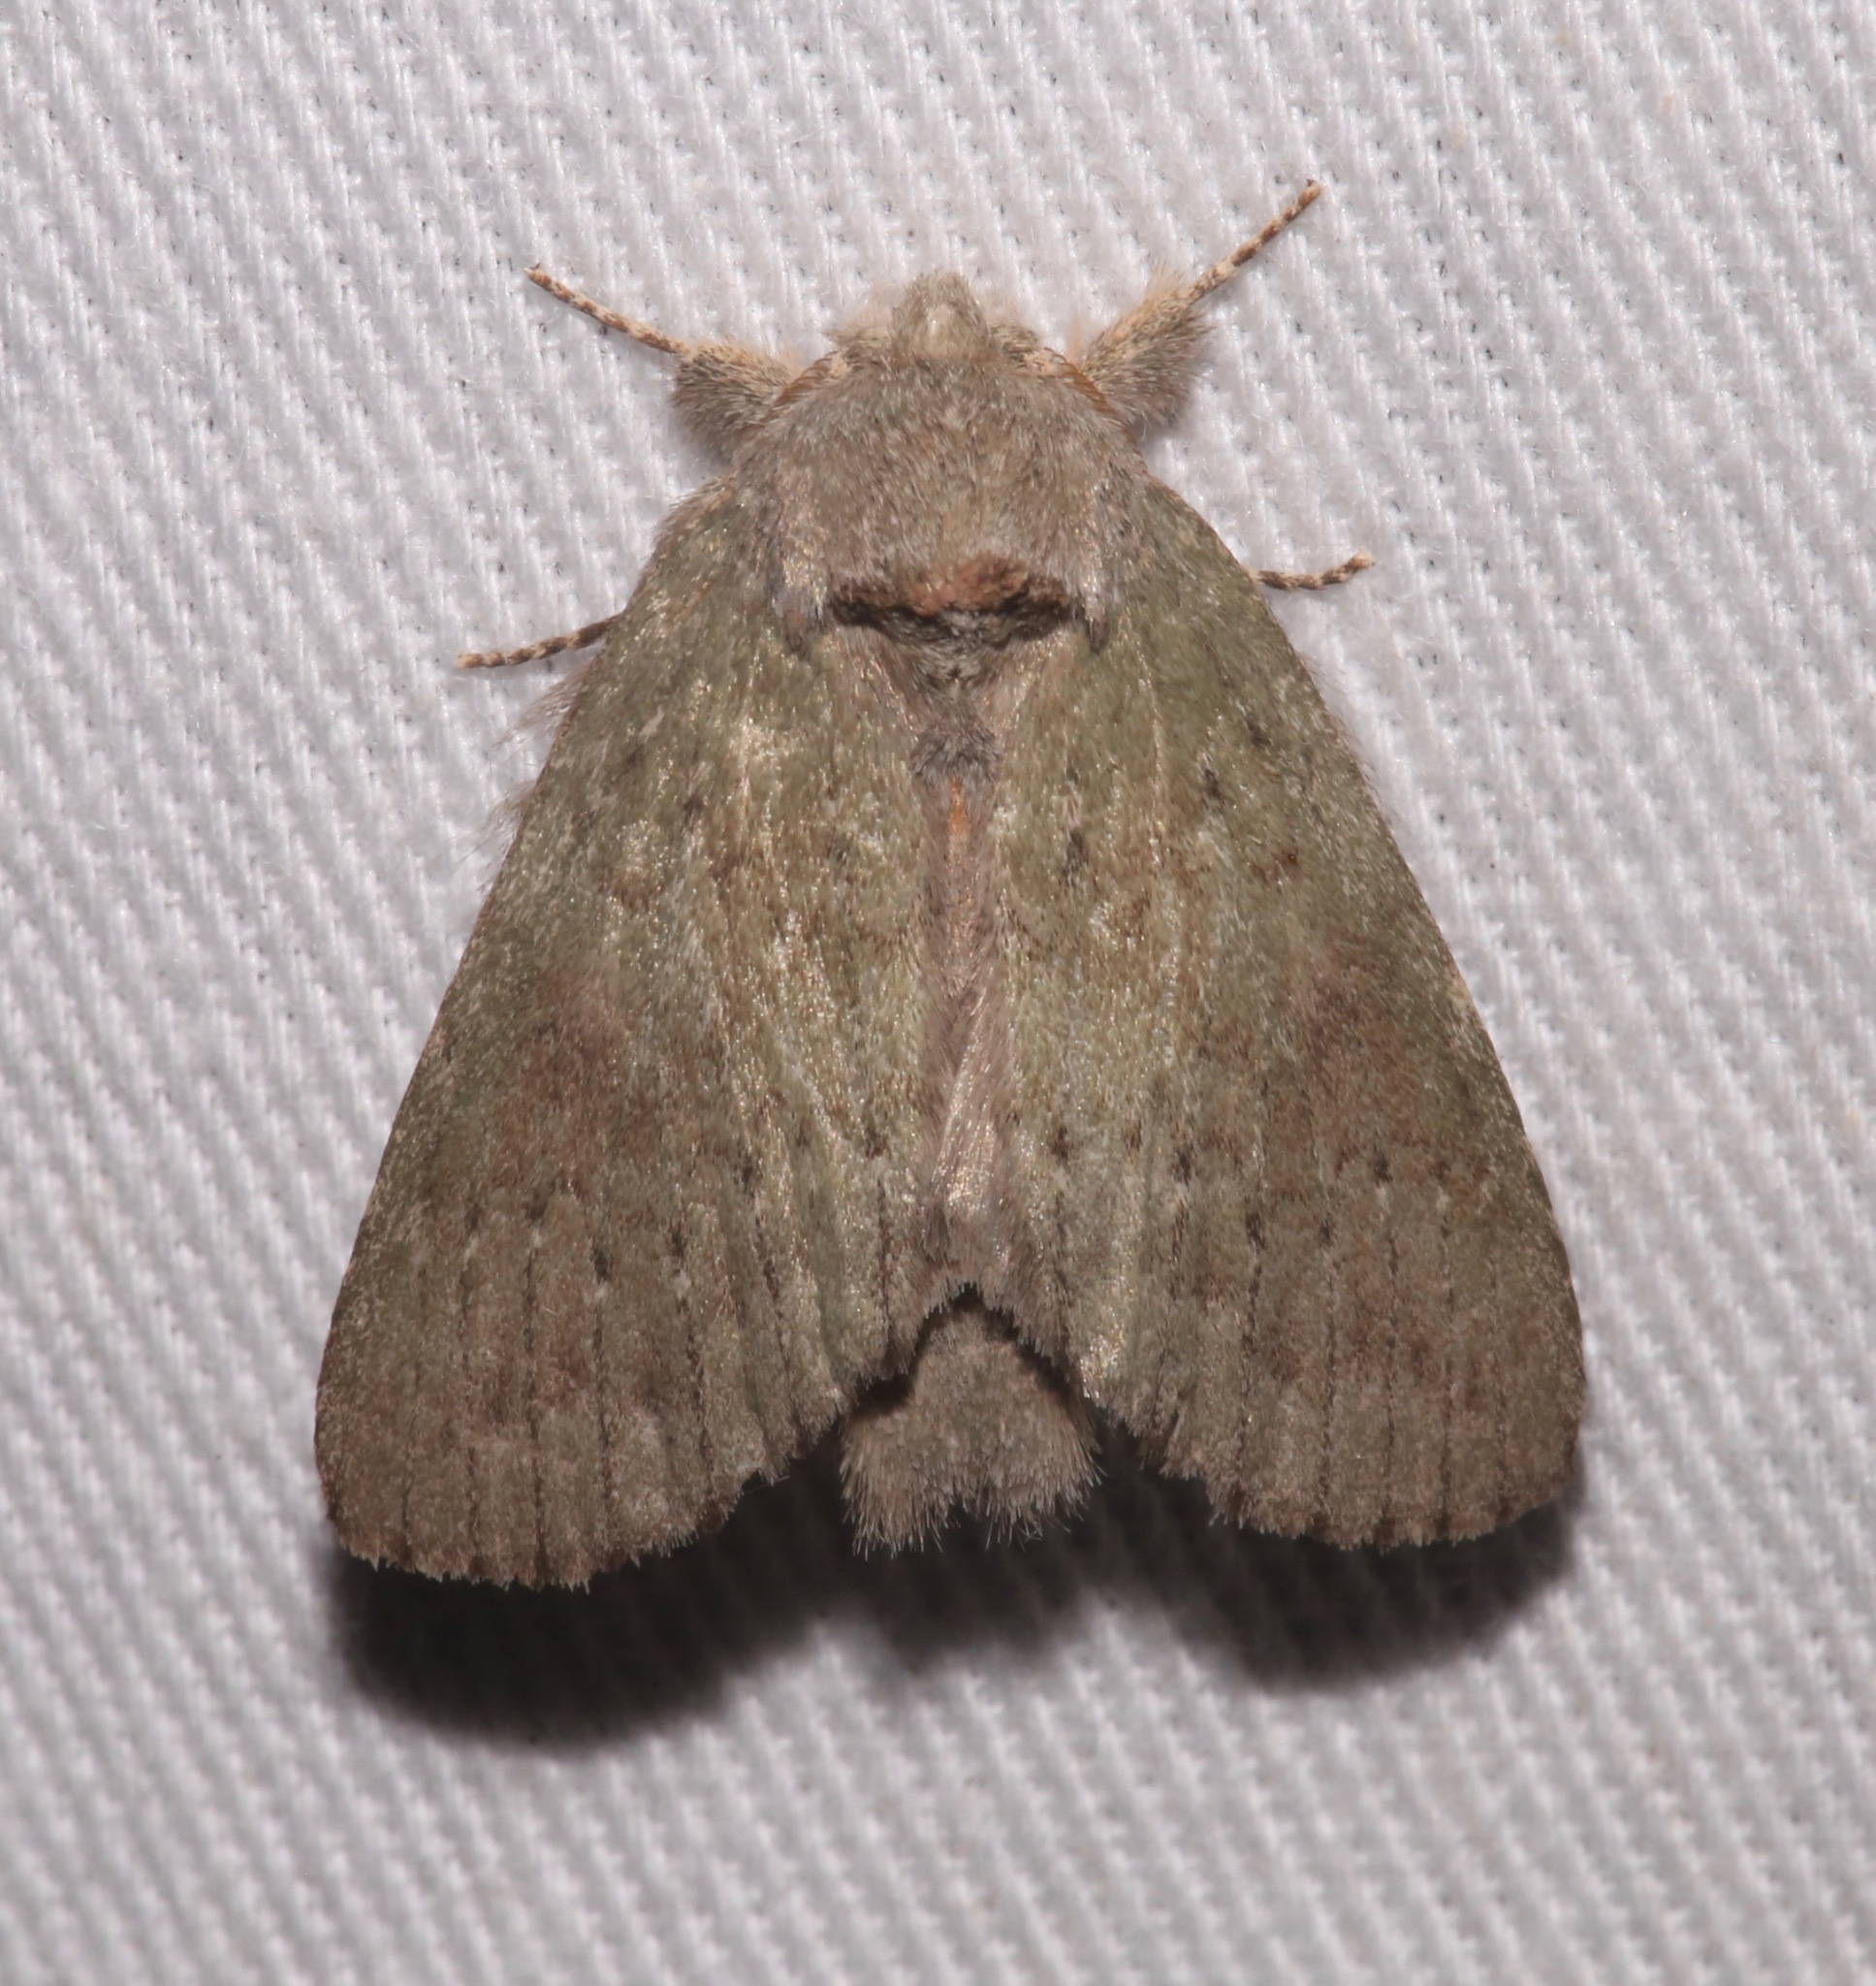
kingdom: Animalia
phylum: Arthropoda
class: Insecta
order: Lepidoptera
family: Notodontidae
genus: Misogada
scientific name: Misogada unicolor
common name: Drab prominent
